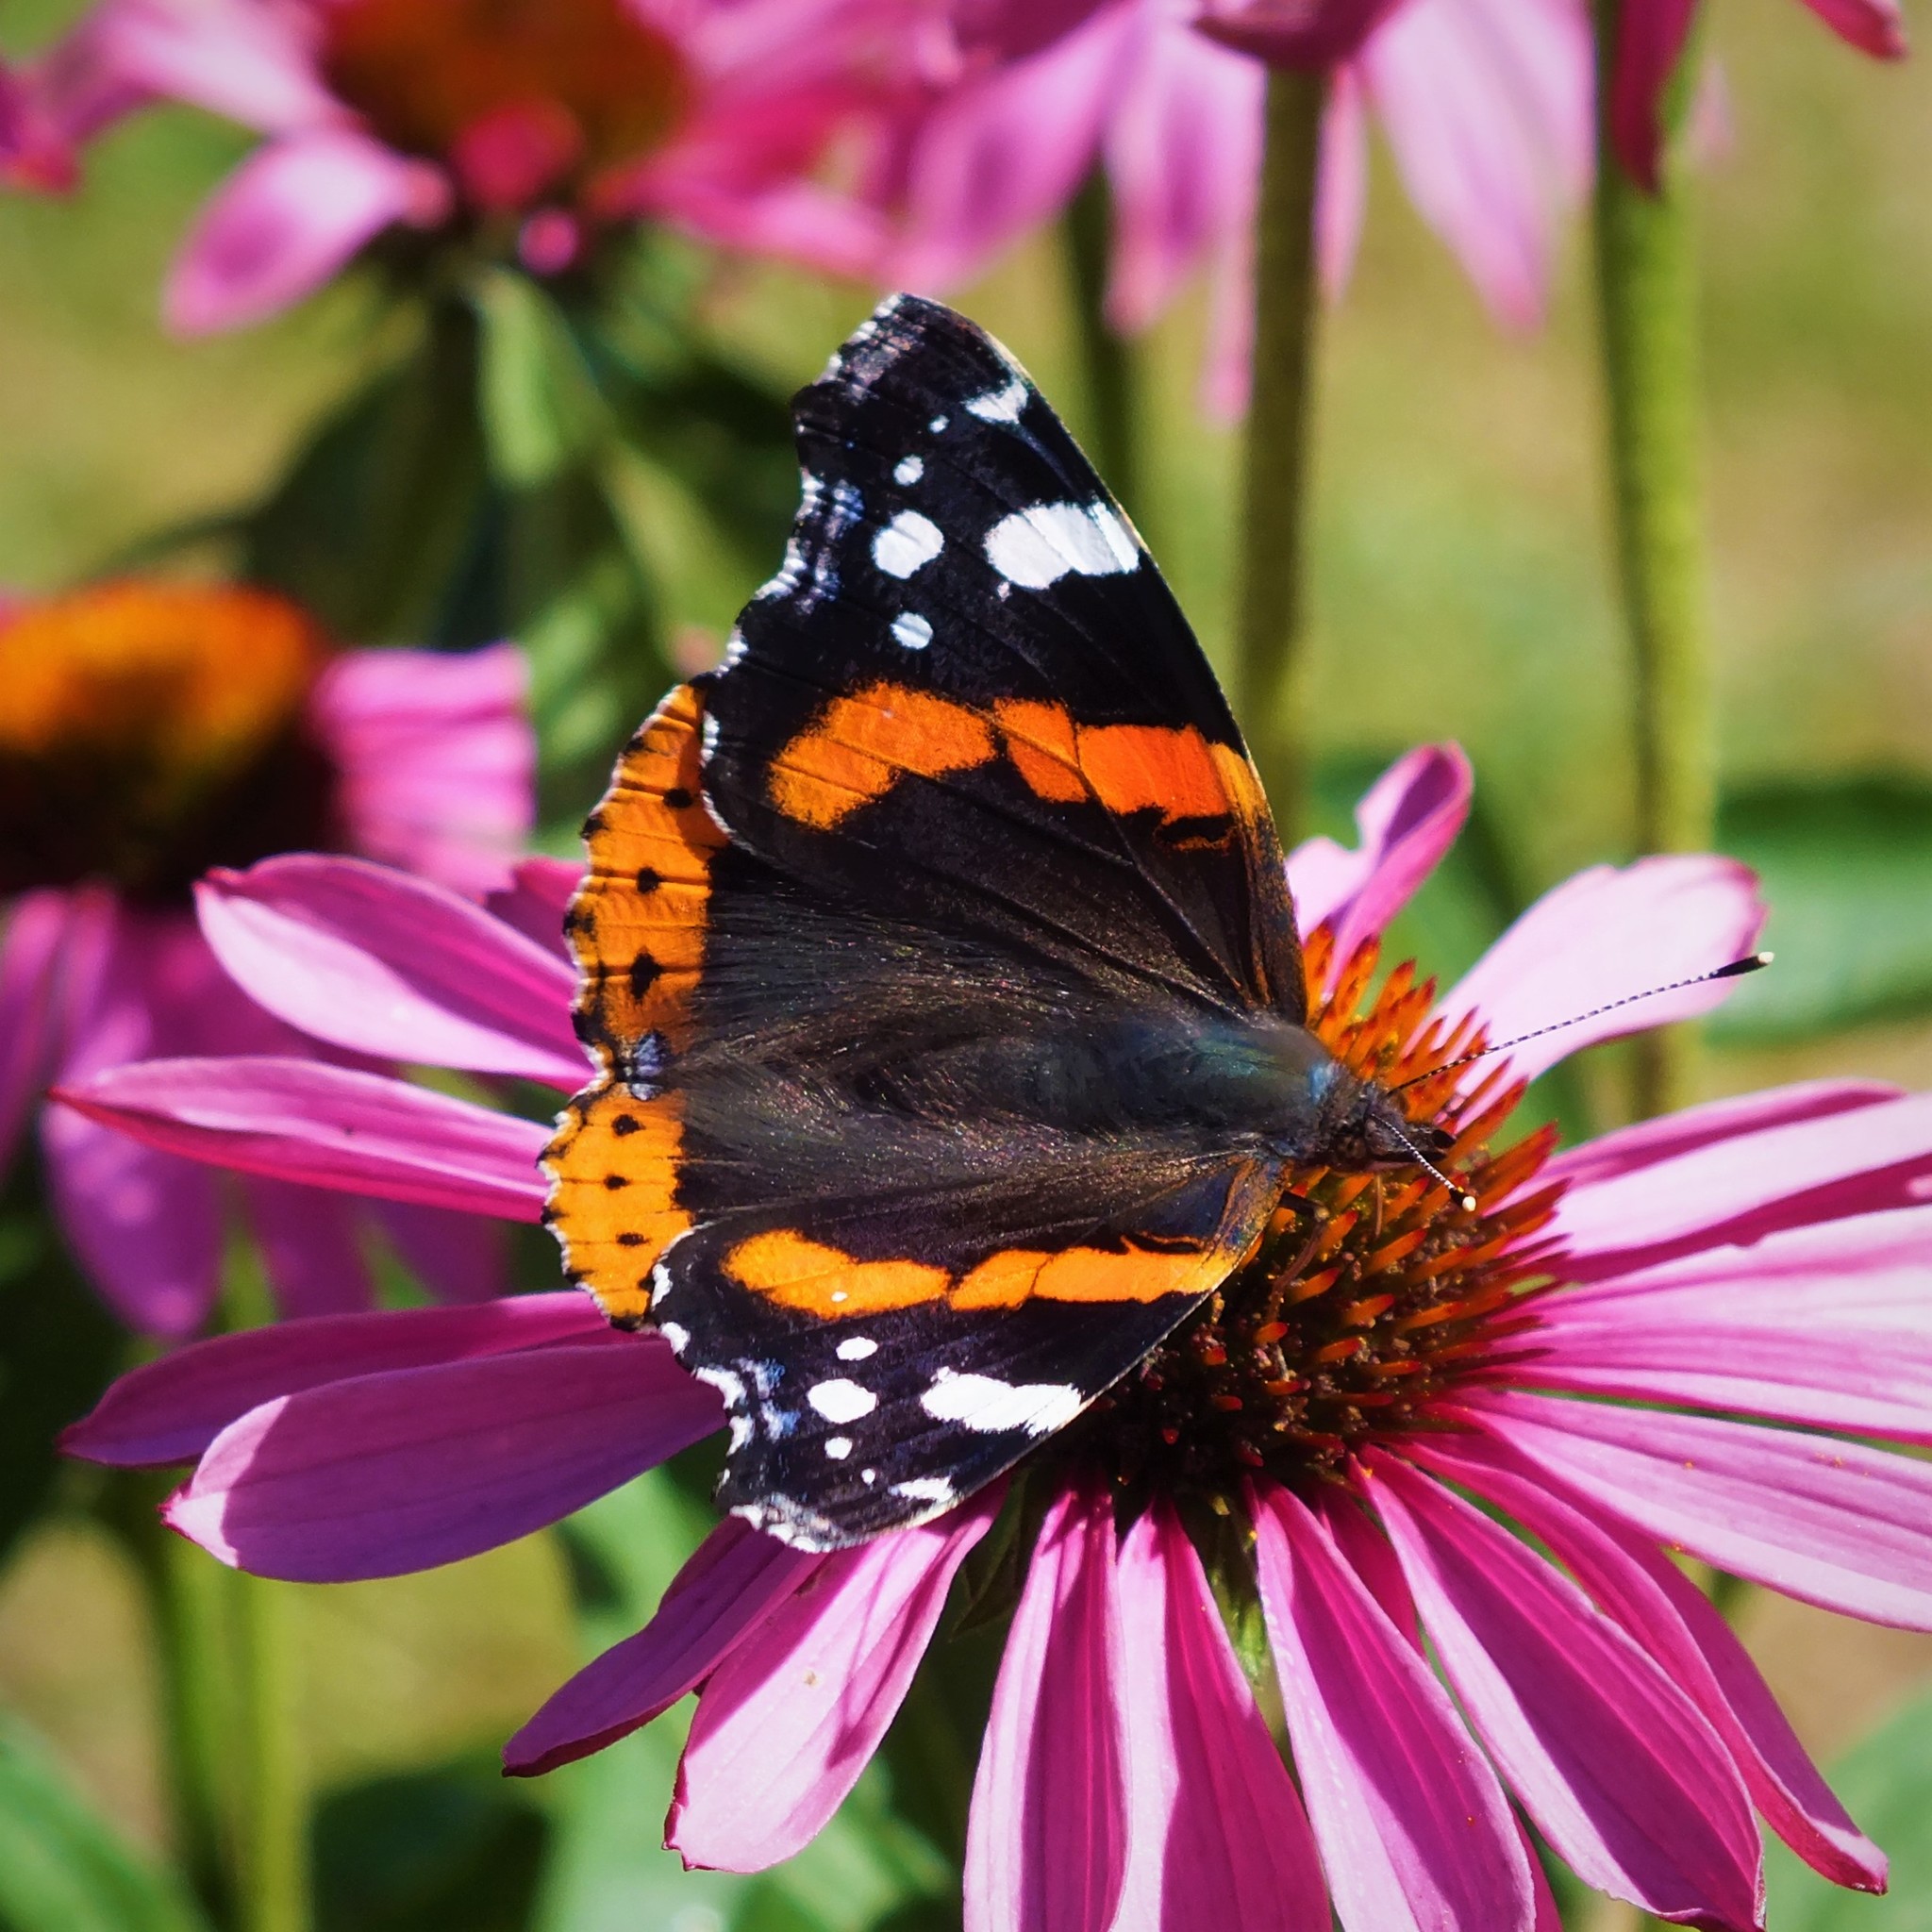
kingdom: Animalia
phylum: Arthropoda
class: Insecta
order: Lepidoptera
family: Nymphalidae
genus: Vanessa
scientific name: Vanessa atalanta
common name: Red admiral
